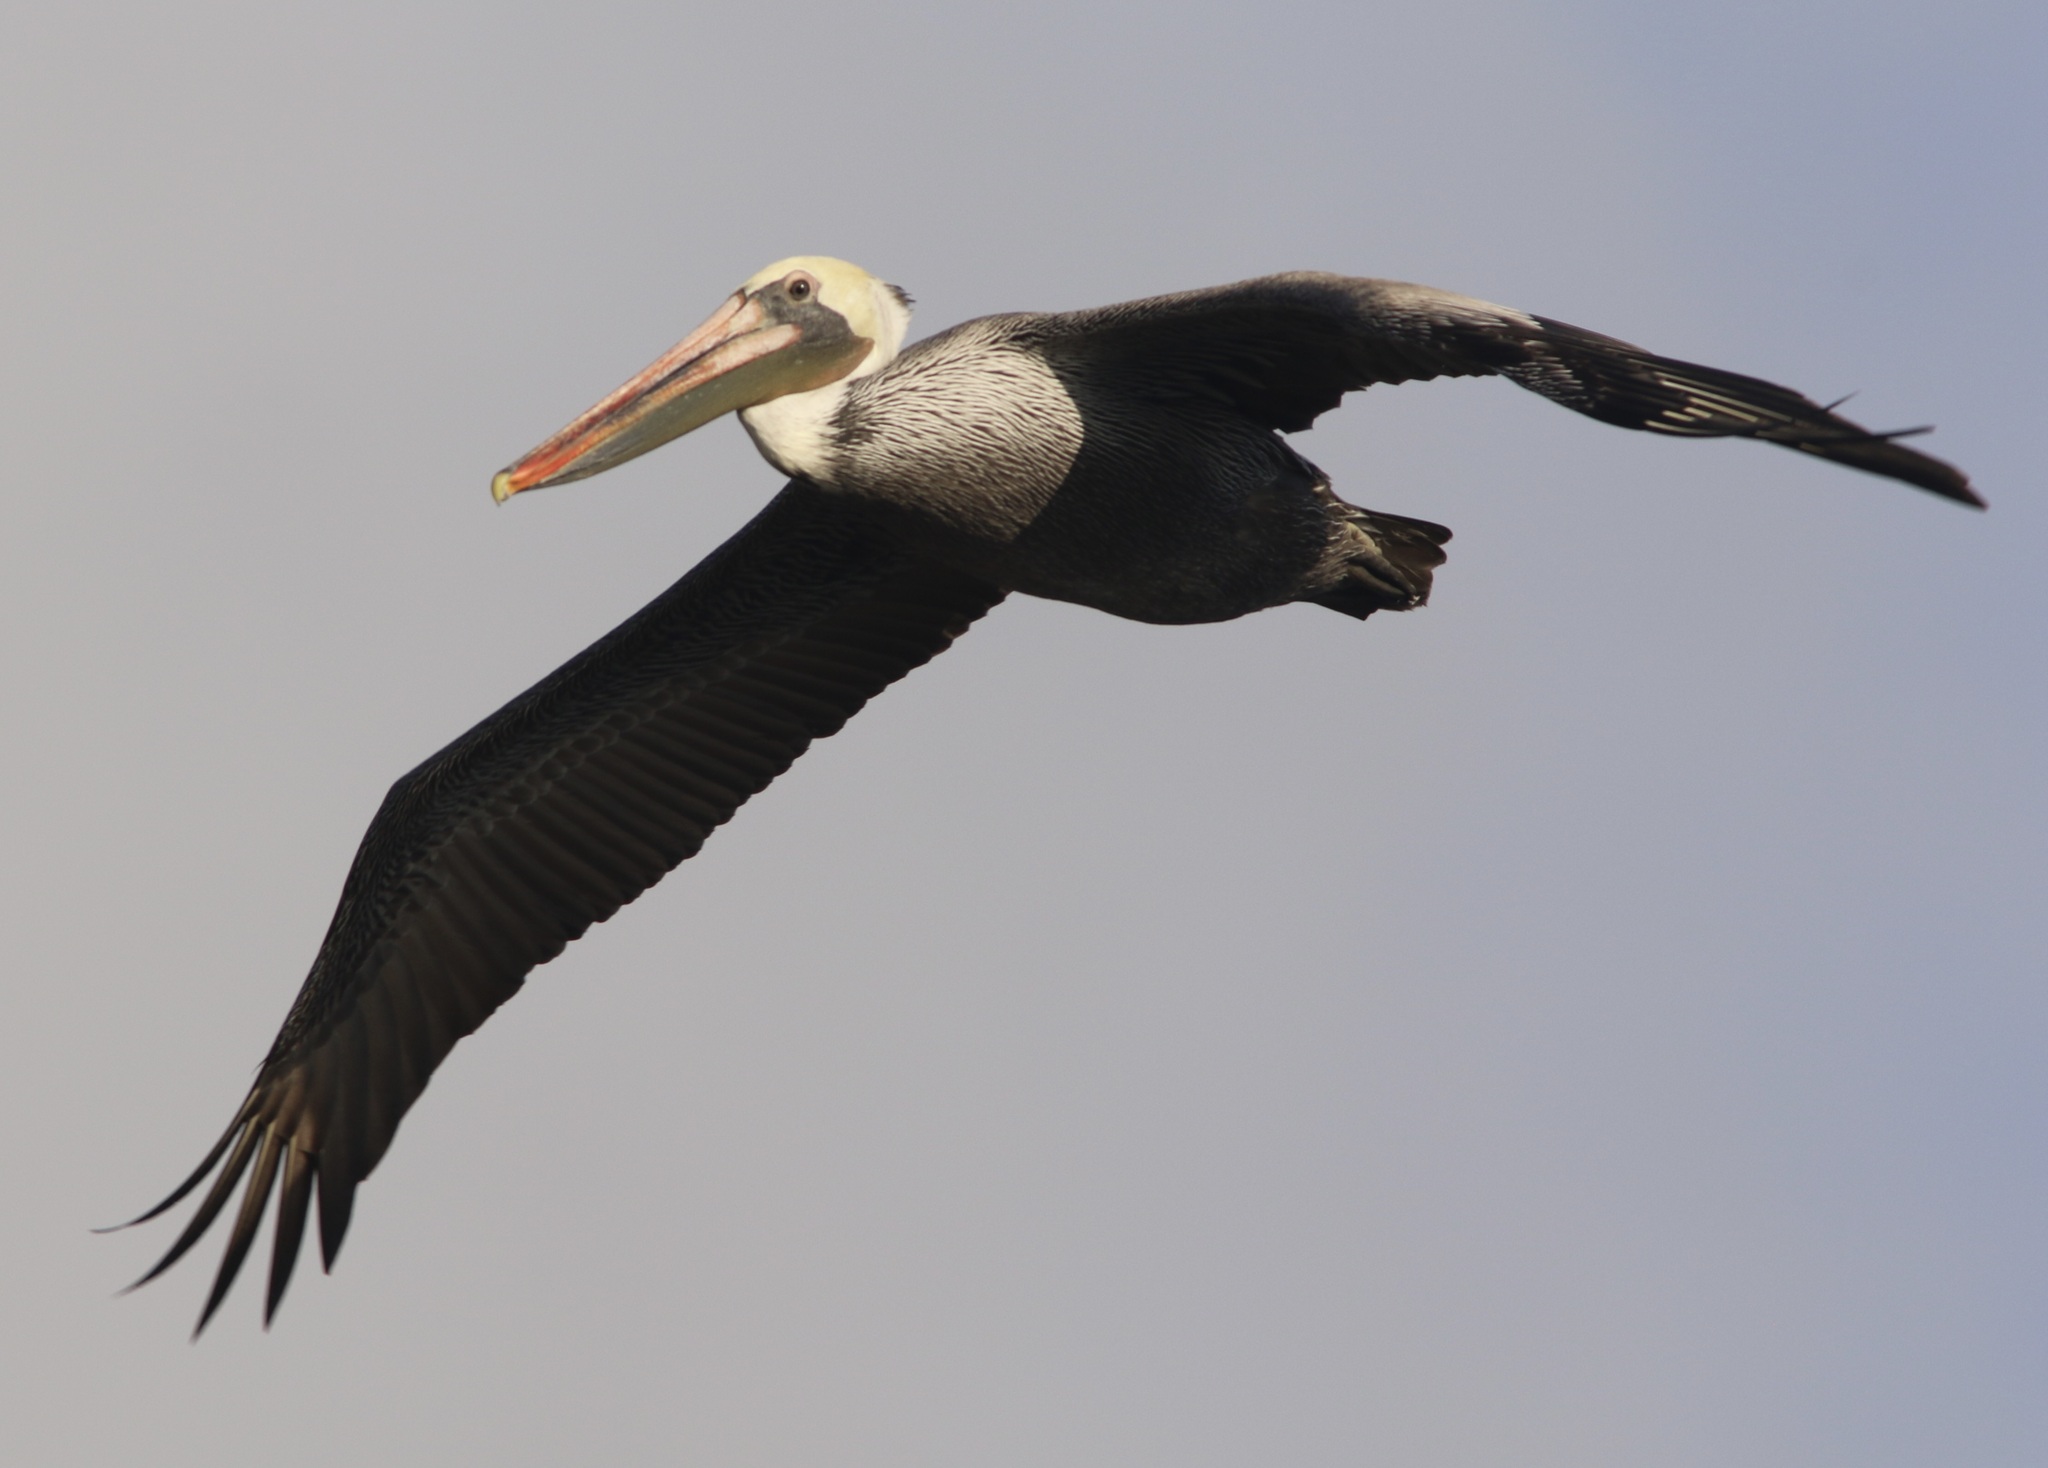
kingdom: Animalia
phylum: Chordata
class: Aves
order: Pelecaniformes
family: Pelecanidae
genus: Pelecanus
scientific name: Pelecanus occidentalis
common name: Brown pelican
